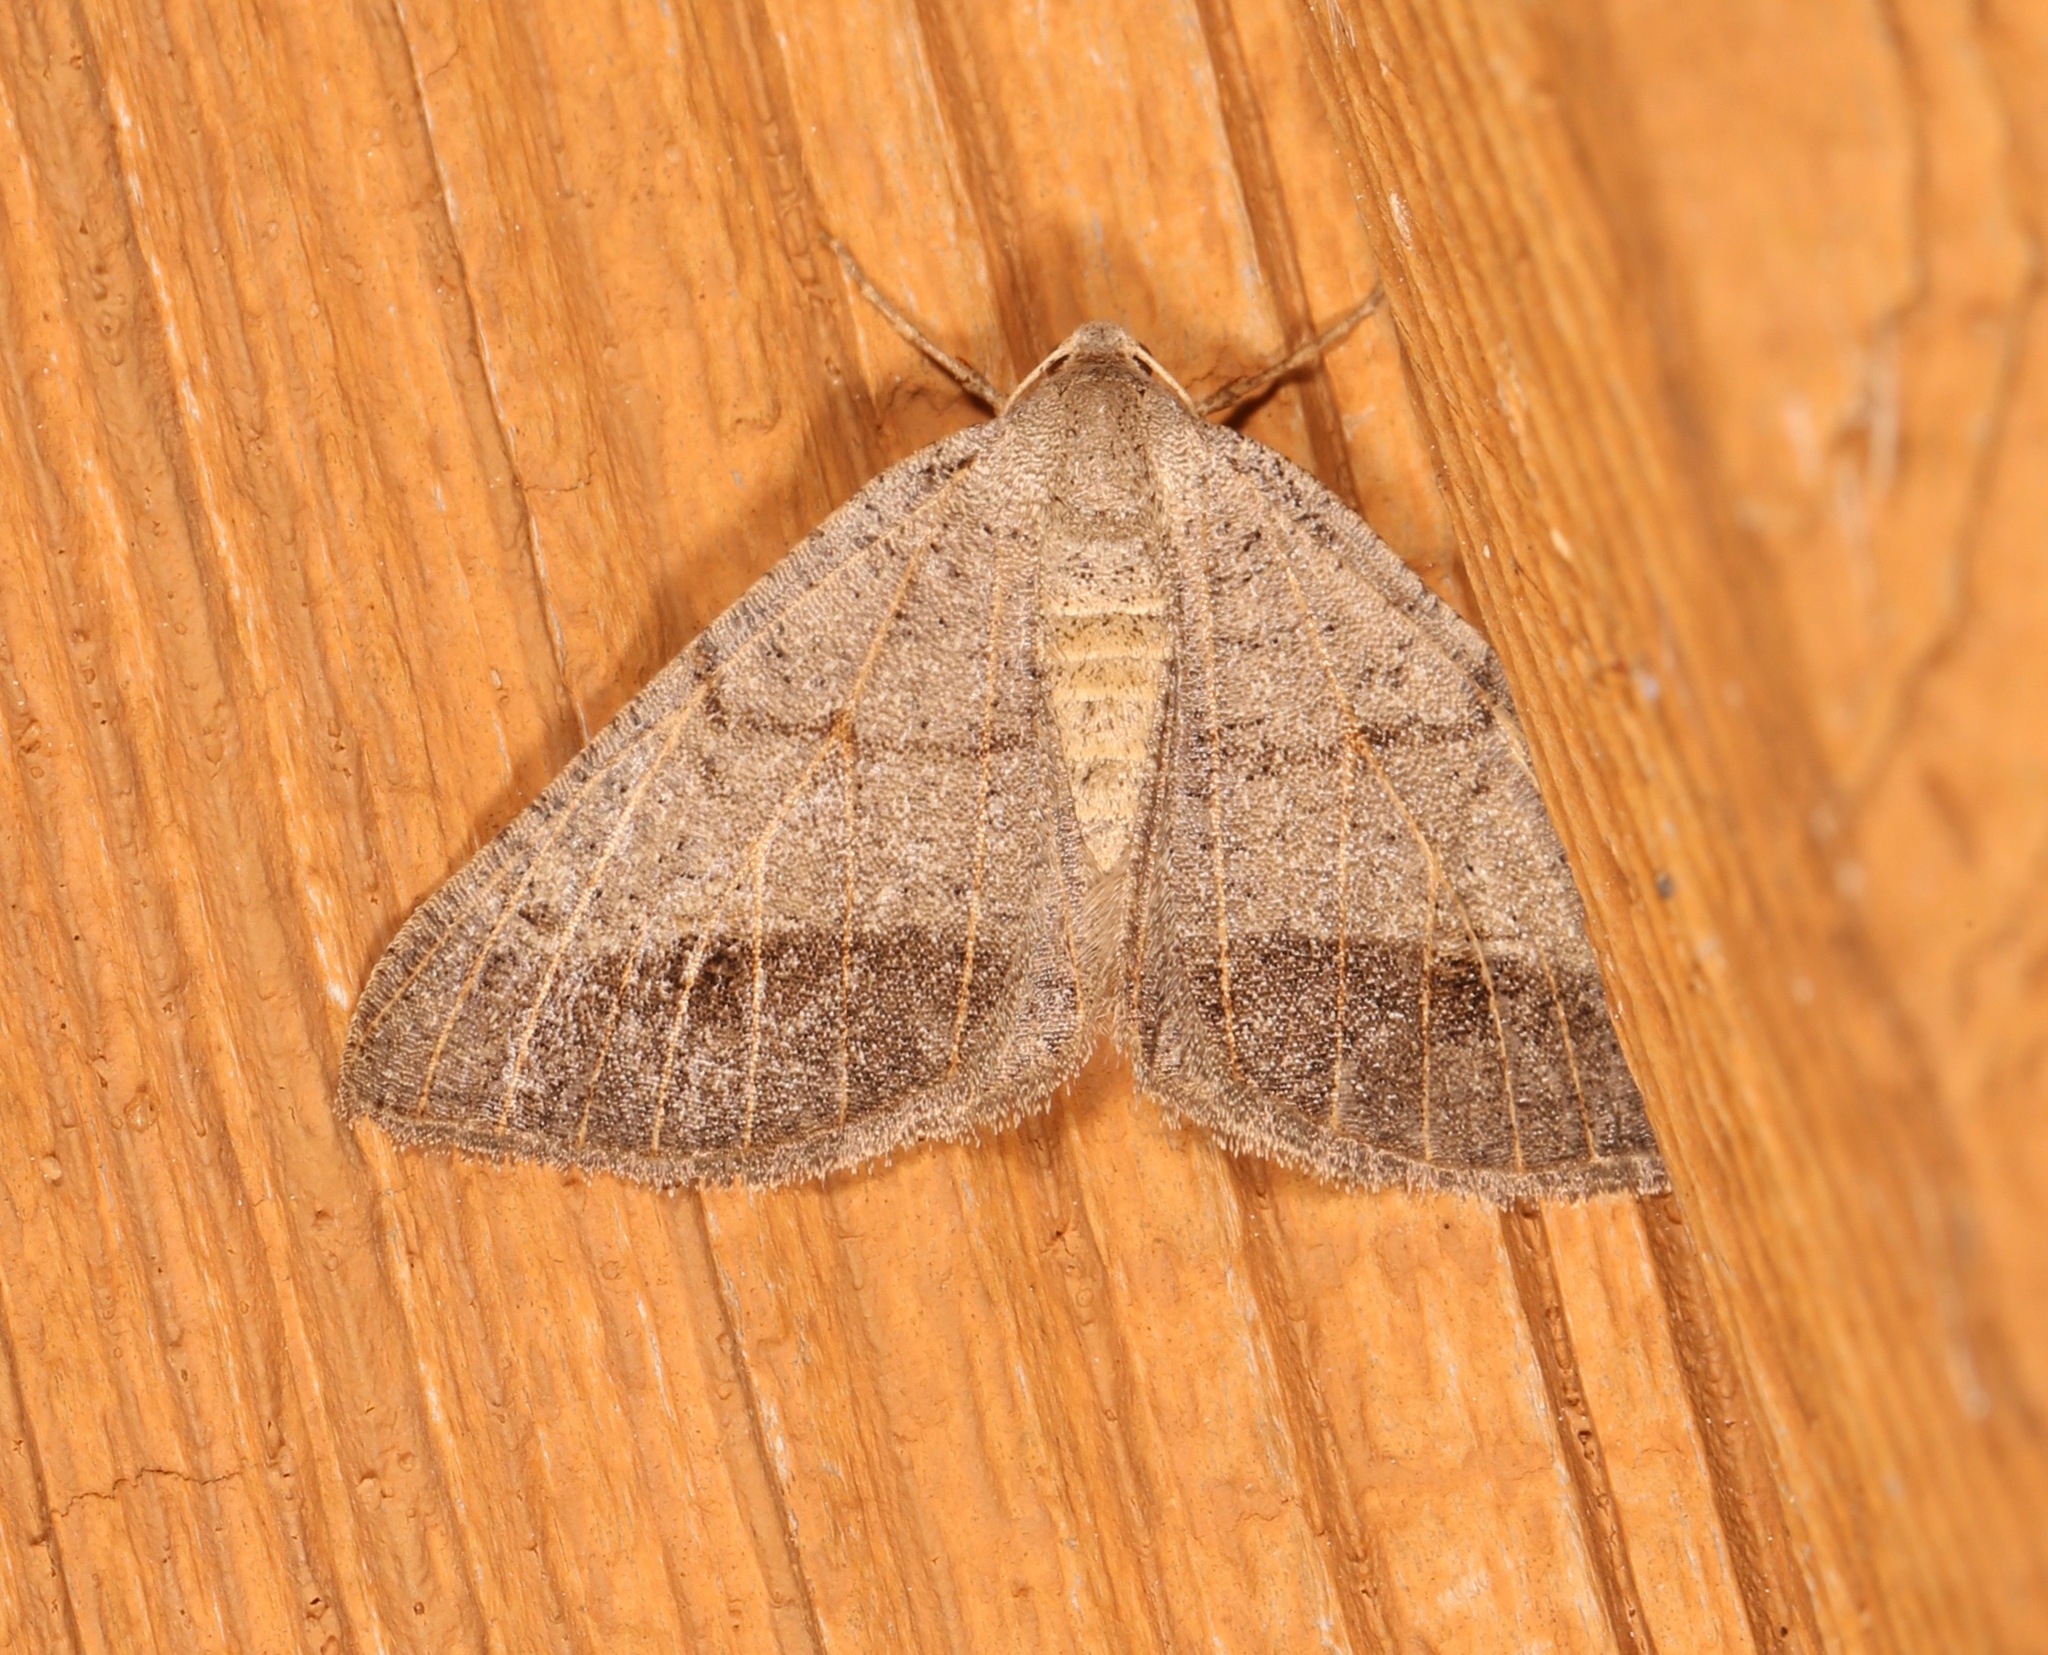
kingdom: Animalia
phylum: Arthropoda
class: Insecta
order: Lepidoptera
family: Geometridae
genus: Isturgia
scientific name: Isturgia dislocaria
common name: Pale-viened enconista
